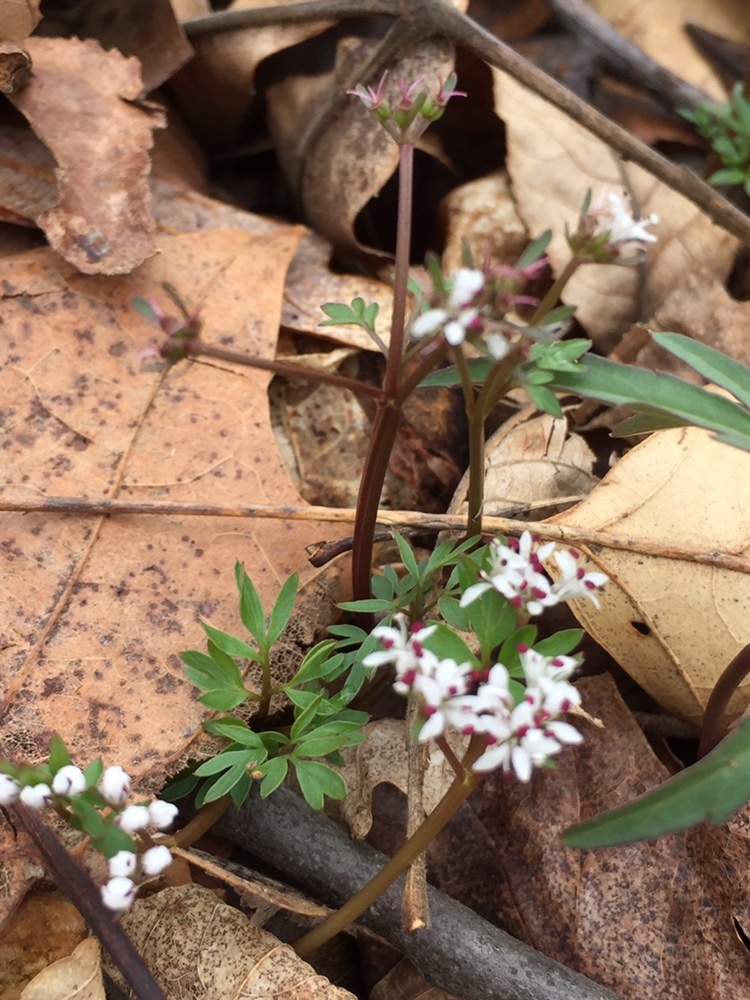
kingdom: Plantae
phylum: Tracheophyta
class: Magnoliopsida
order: Apiales
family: Apiaceae
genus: Erigenia
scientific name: Erigenia bulbosa
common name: Pepper-and-salt
